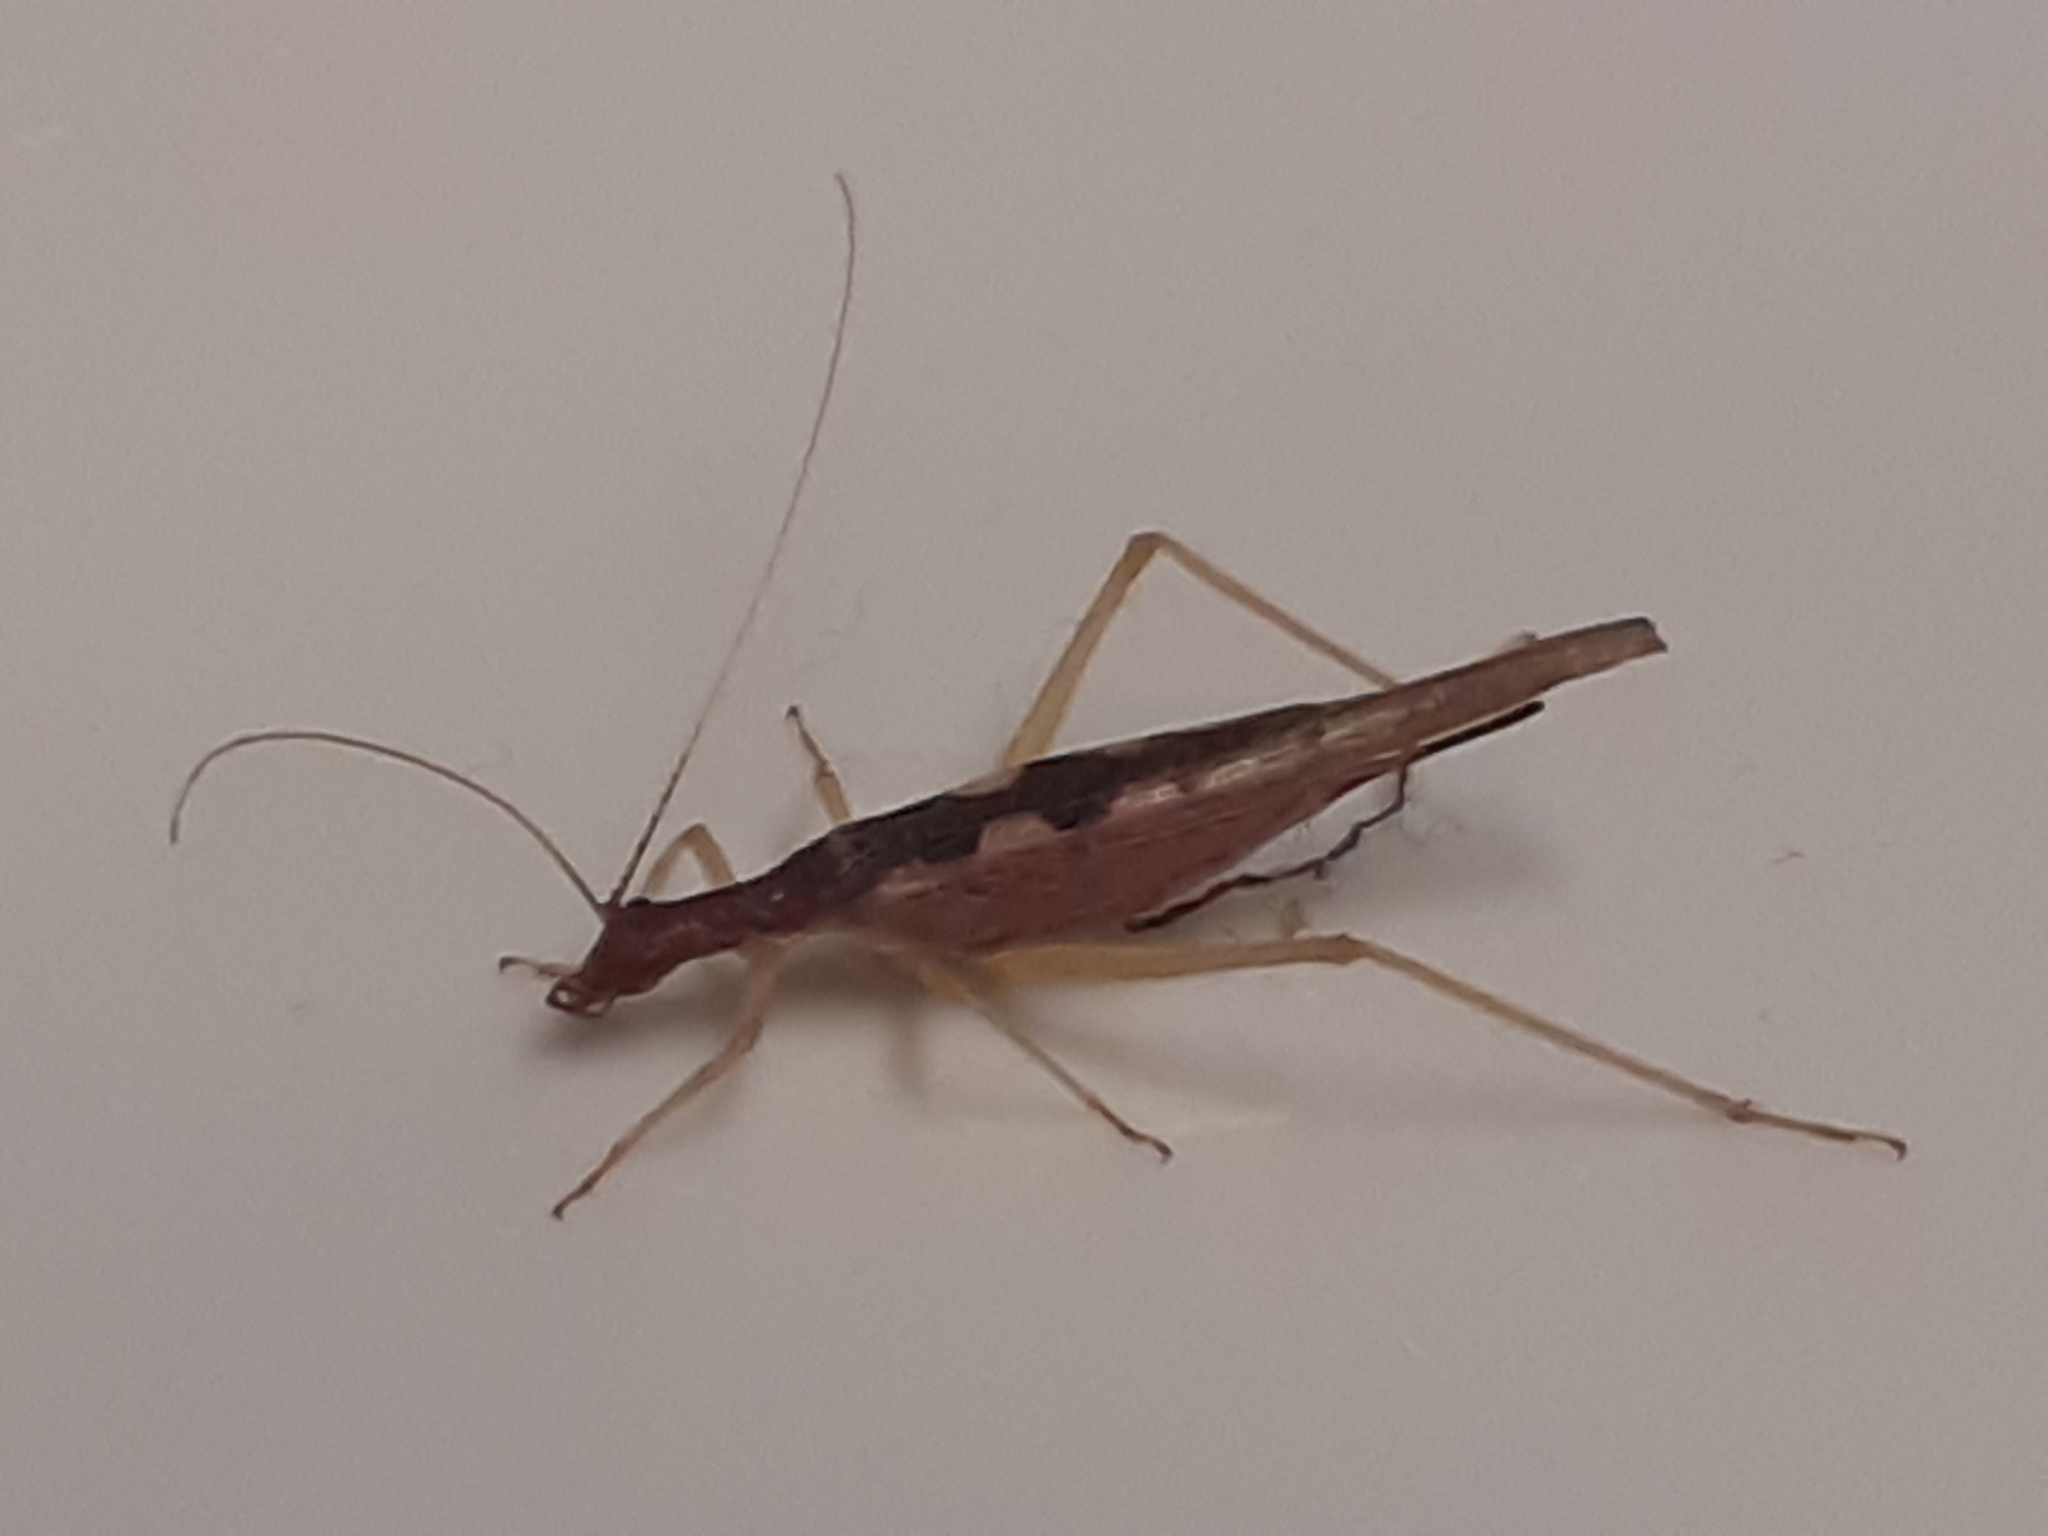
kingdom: Animalia
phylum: Arthropoda
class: Insecta
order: Orthoptera
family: Gryllidae
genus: Neoxabea
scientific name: Neoxabea bipunctata
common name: Two-spotted tree cricket
